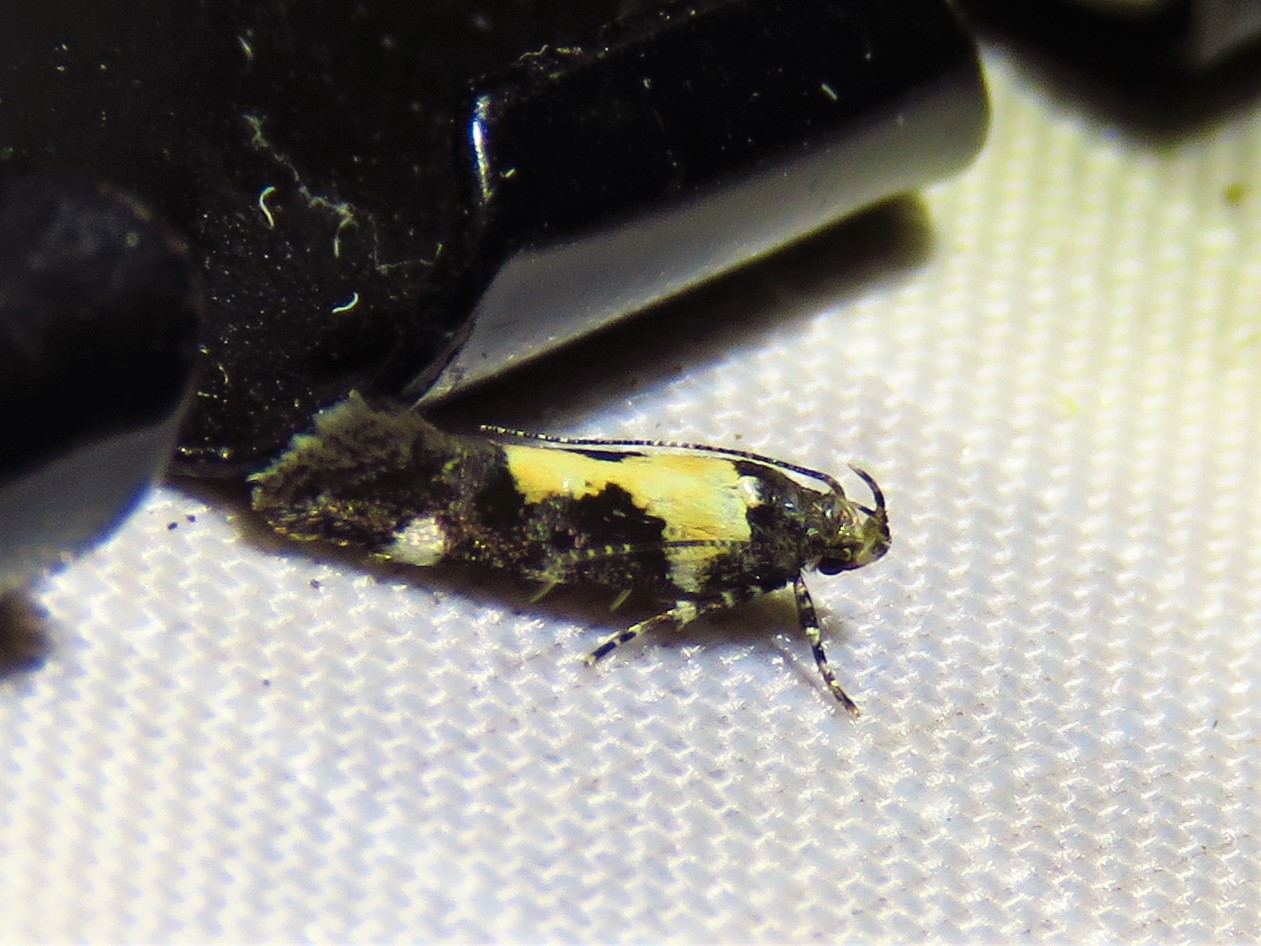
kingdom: Animalia
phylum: Arthropoda
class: Insecta
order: Lepidoptera
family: Gelechiidae
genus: Stegasta
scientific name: Stegasta bosqueella
